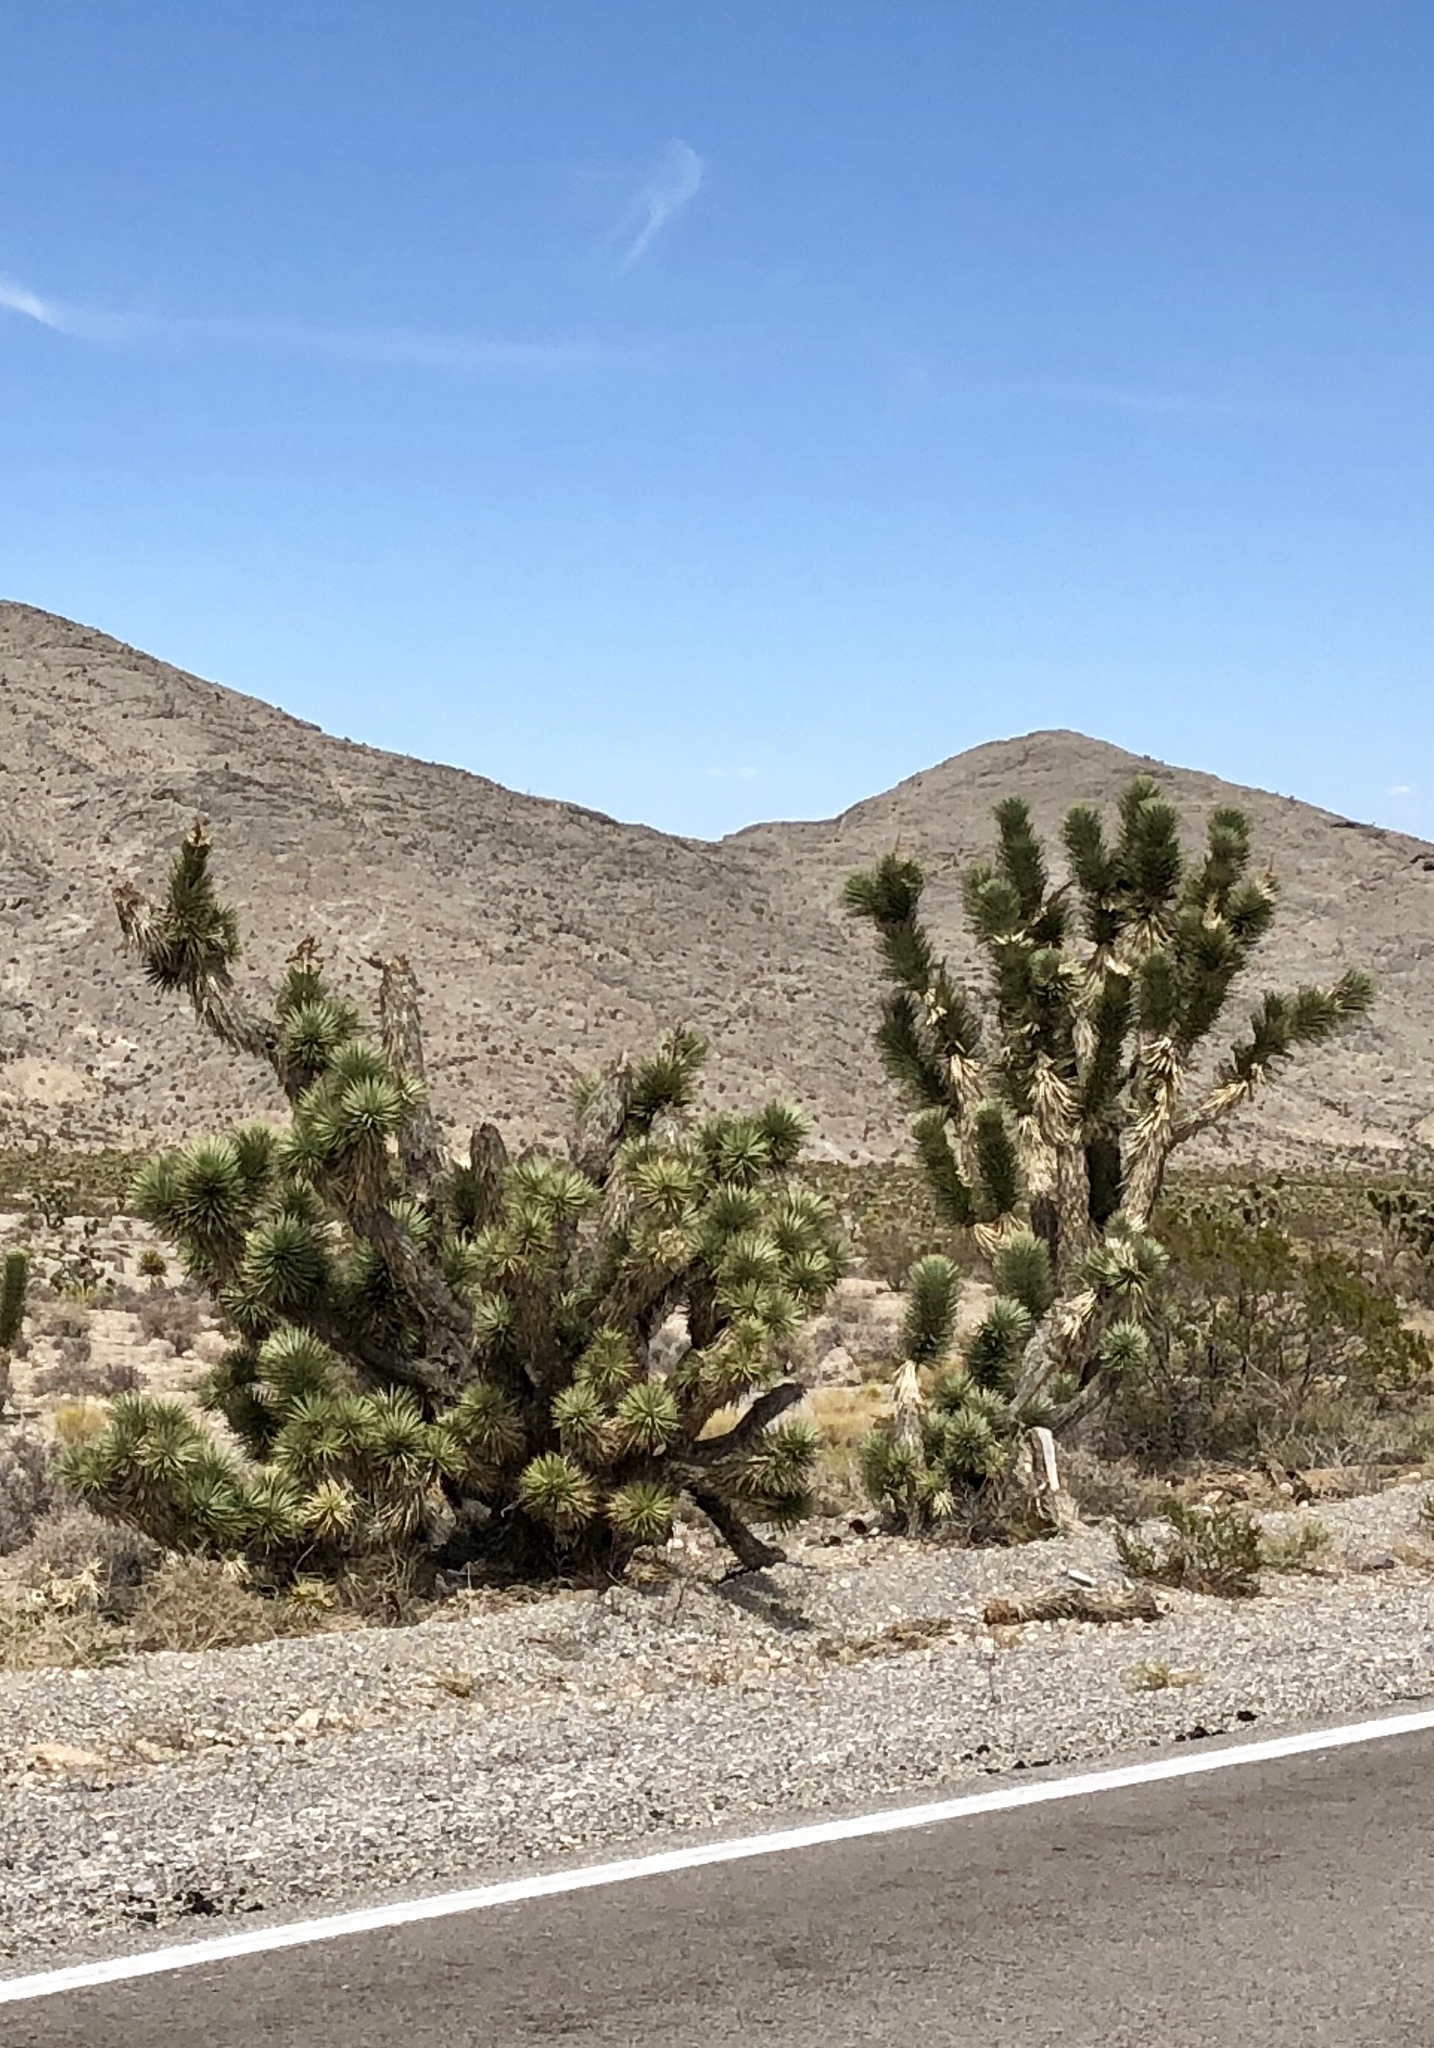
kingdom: Plantae
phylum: Tracheophyta
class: Liliopsida
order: Asparagales
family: Asparagaceae
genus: Yucca
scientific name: Yucca brevifolia
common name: Joshua tree
